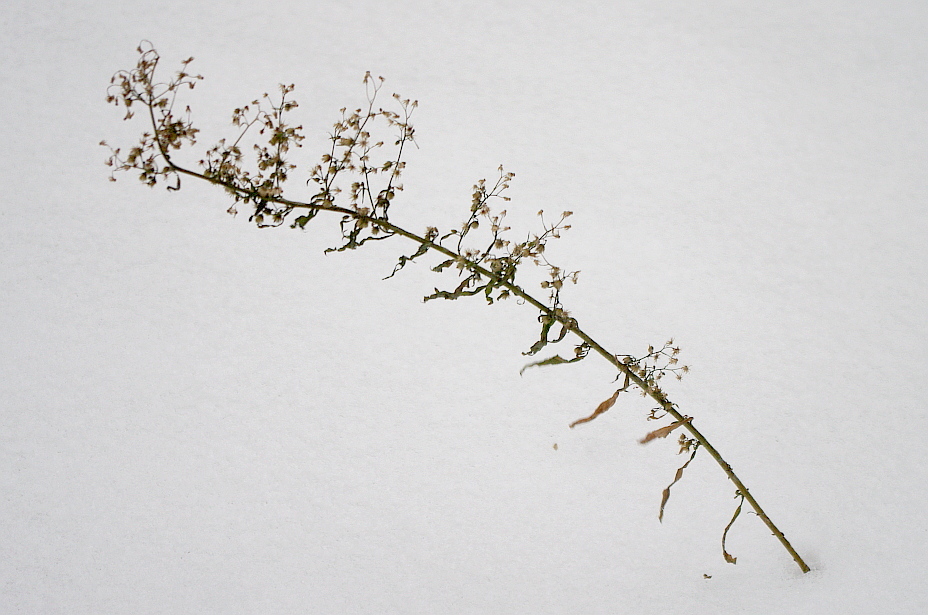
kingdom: Plantae
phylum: Tracheophyta
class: Magnoliopsida
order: Asterales
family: Asteraceae
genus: Erigeron
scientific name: Erigeron canadensis
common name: Canadian fleabane
